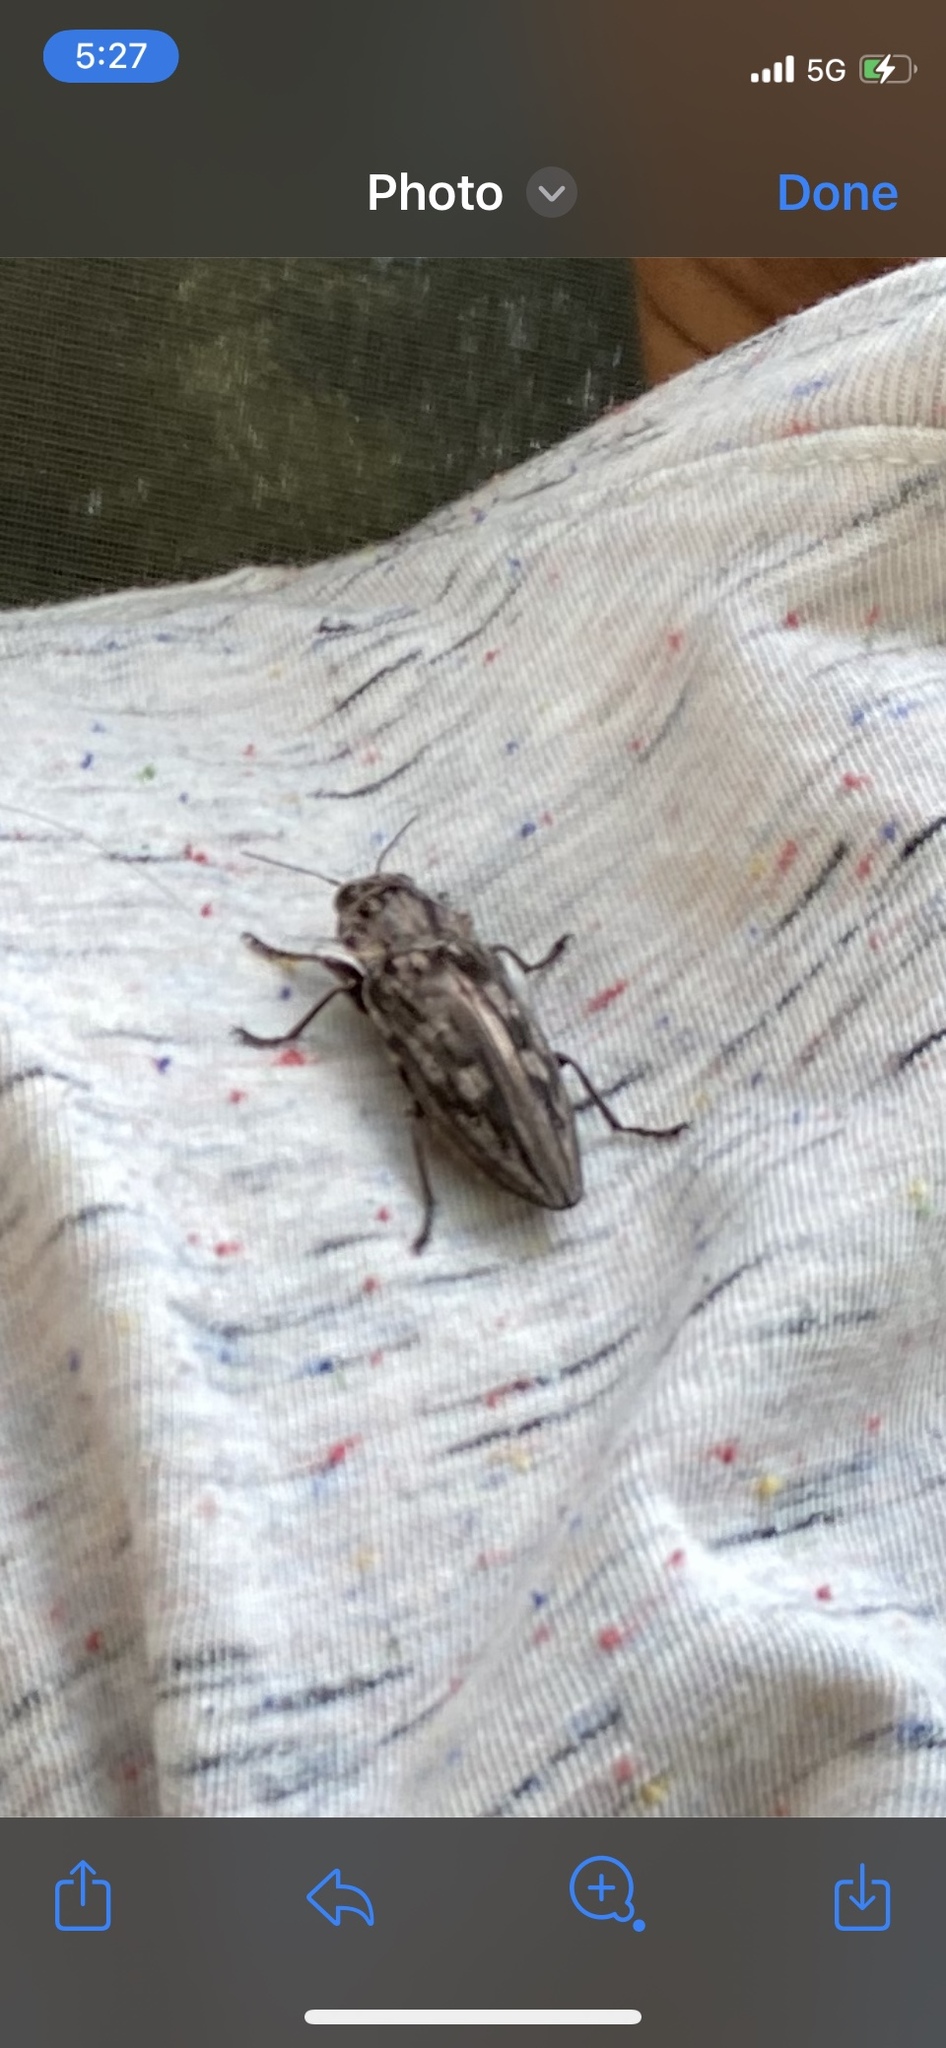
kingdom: Animalia
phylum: Arthropoda
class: Insecta
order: Coleoptera
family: Buprestidae
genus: Chalcophora
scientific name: Chalcophora virginiensis
